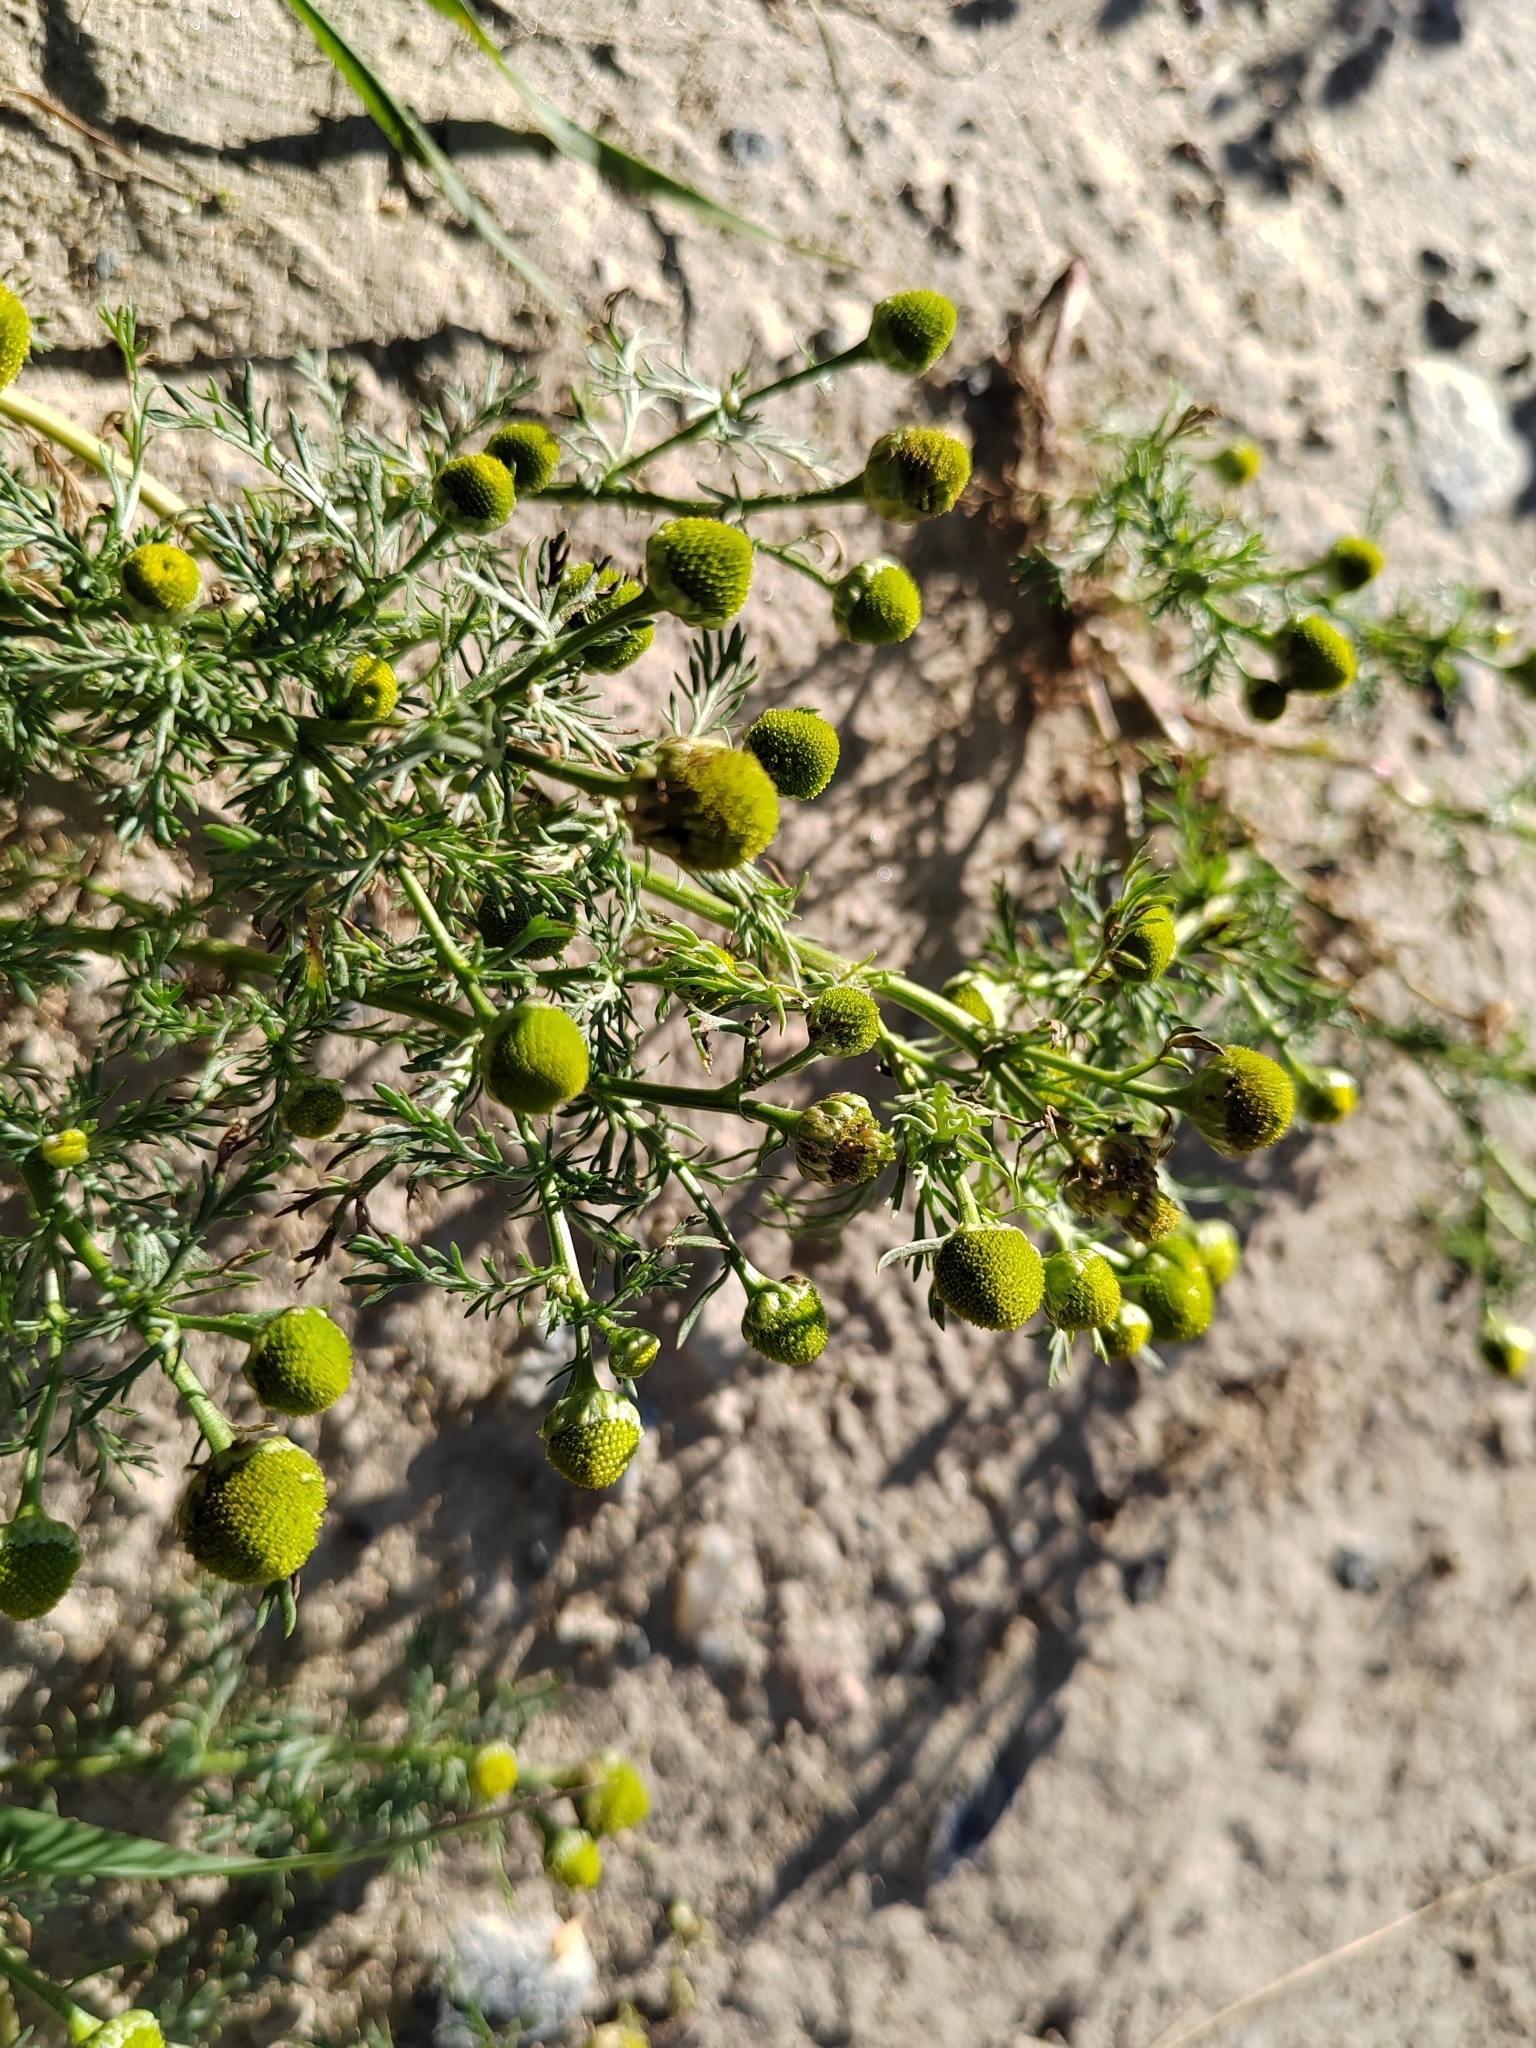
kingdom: Plantae
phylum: Tracheophyta
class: Magnoliopsida
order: Asterales
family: Asteraceae
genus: Matricaria
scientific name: Matricaria discoidea
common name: Disc mayweed
